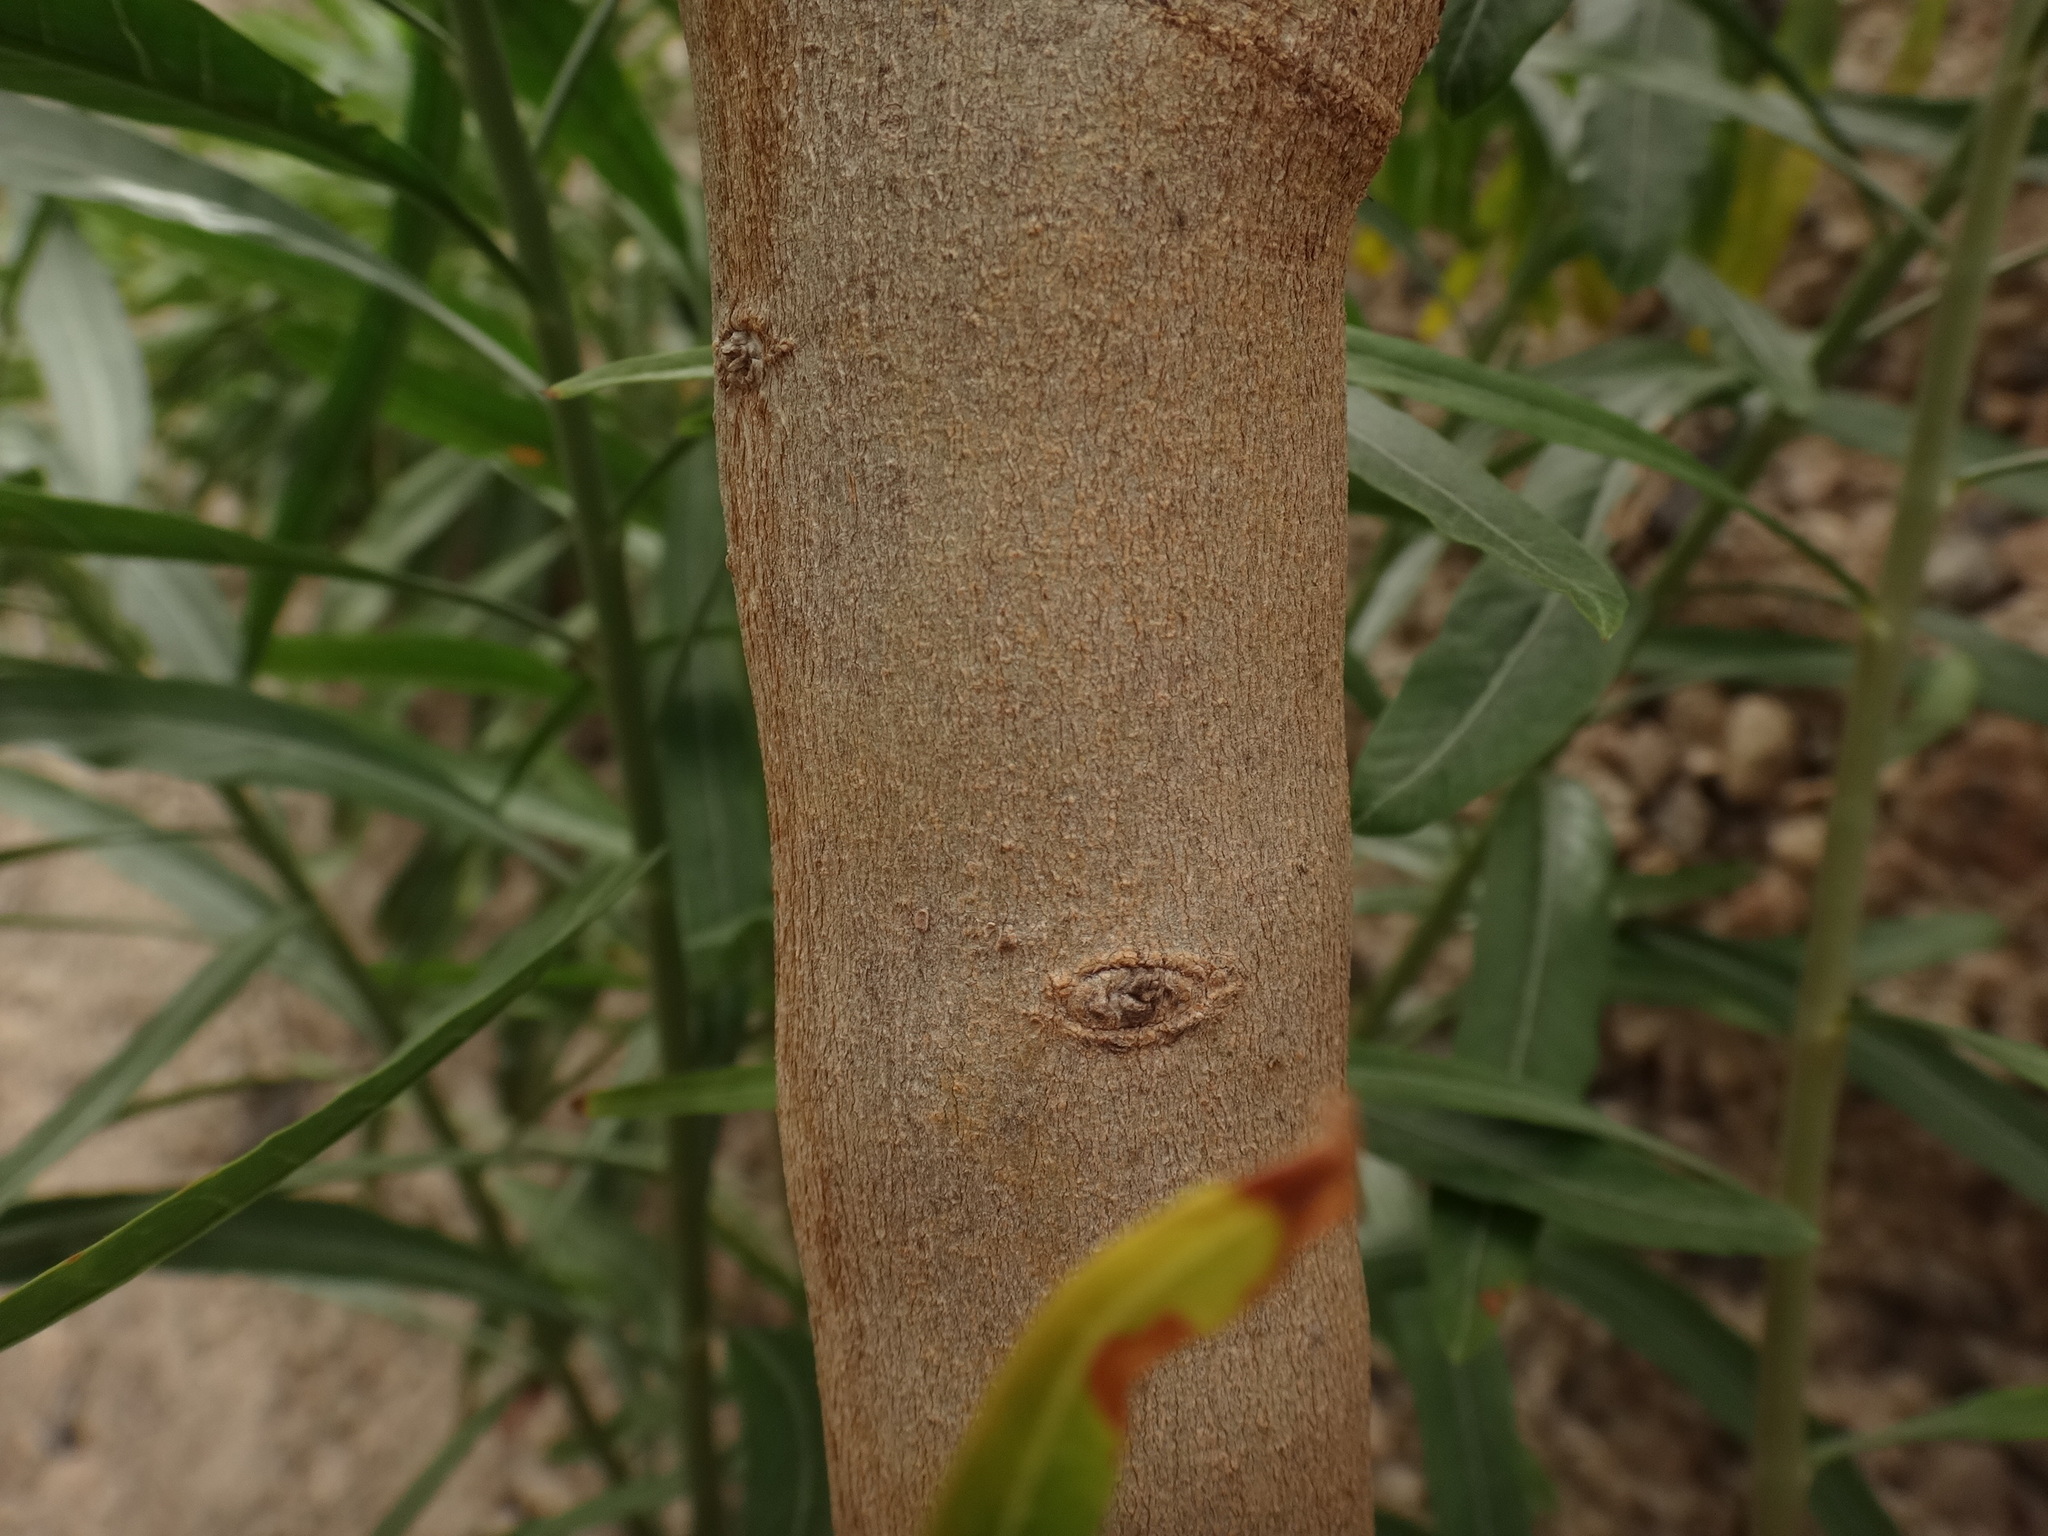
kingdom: Plantae
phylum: Tracheophyta
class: Magnoliopsida
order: Solanales
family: Convolvulaceae
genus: Convolvulus
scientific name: Convolvulus floridus
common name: Guadil
